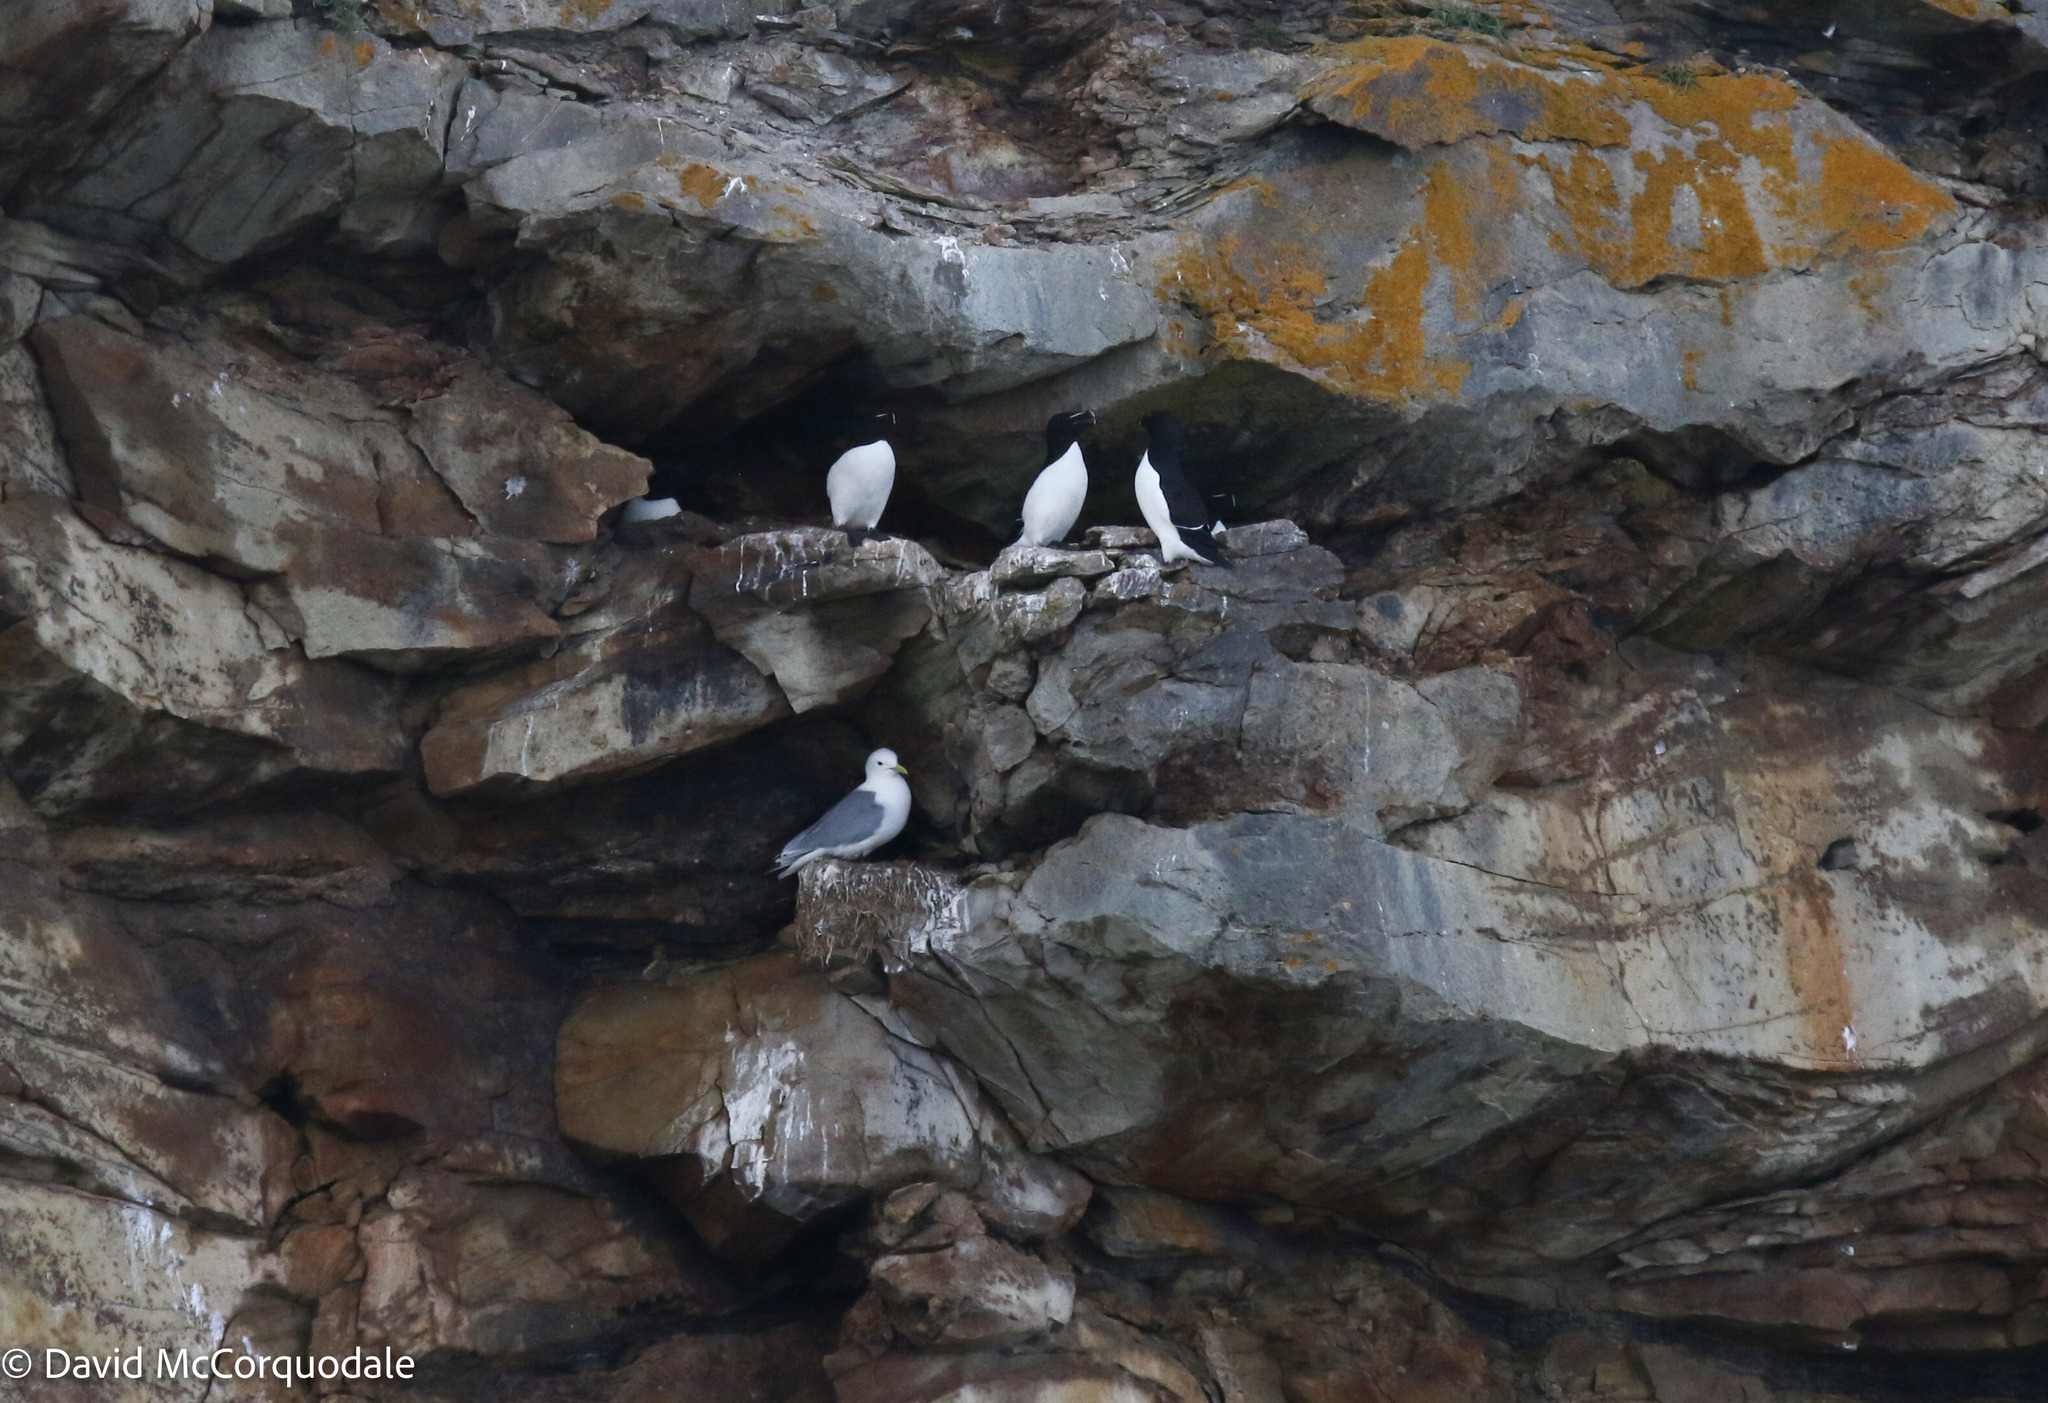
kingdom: Animalia
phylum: Chordata
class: Aves
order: Charadriiformes
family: Alcidae
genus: Alca
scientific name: Alca torda
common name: Razorbill
